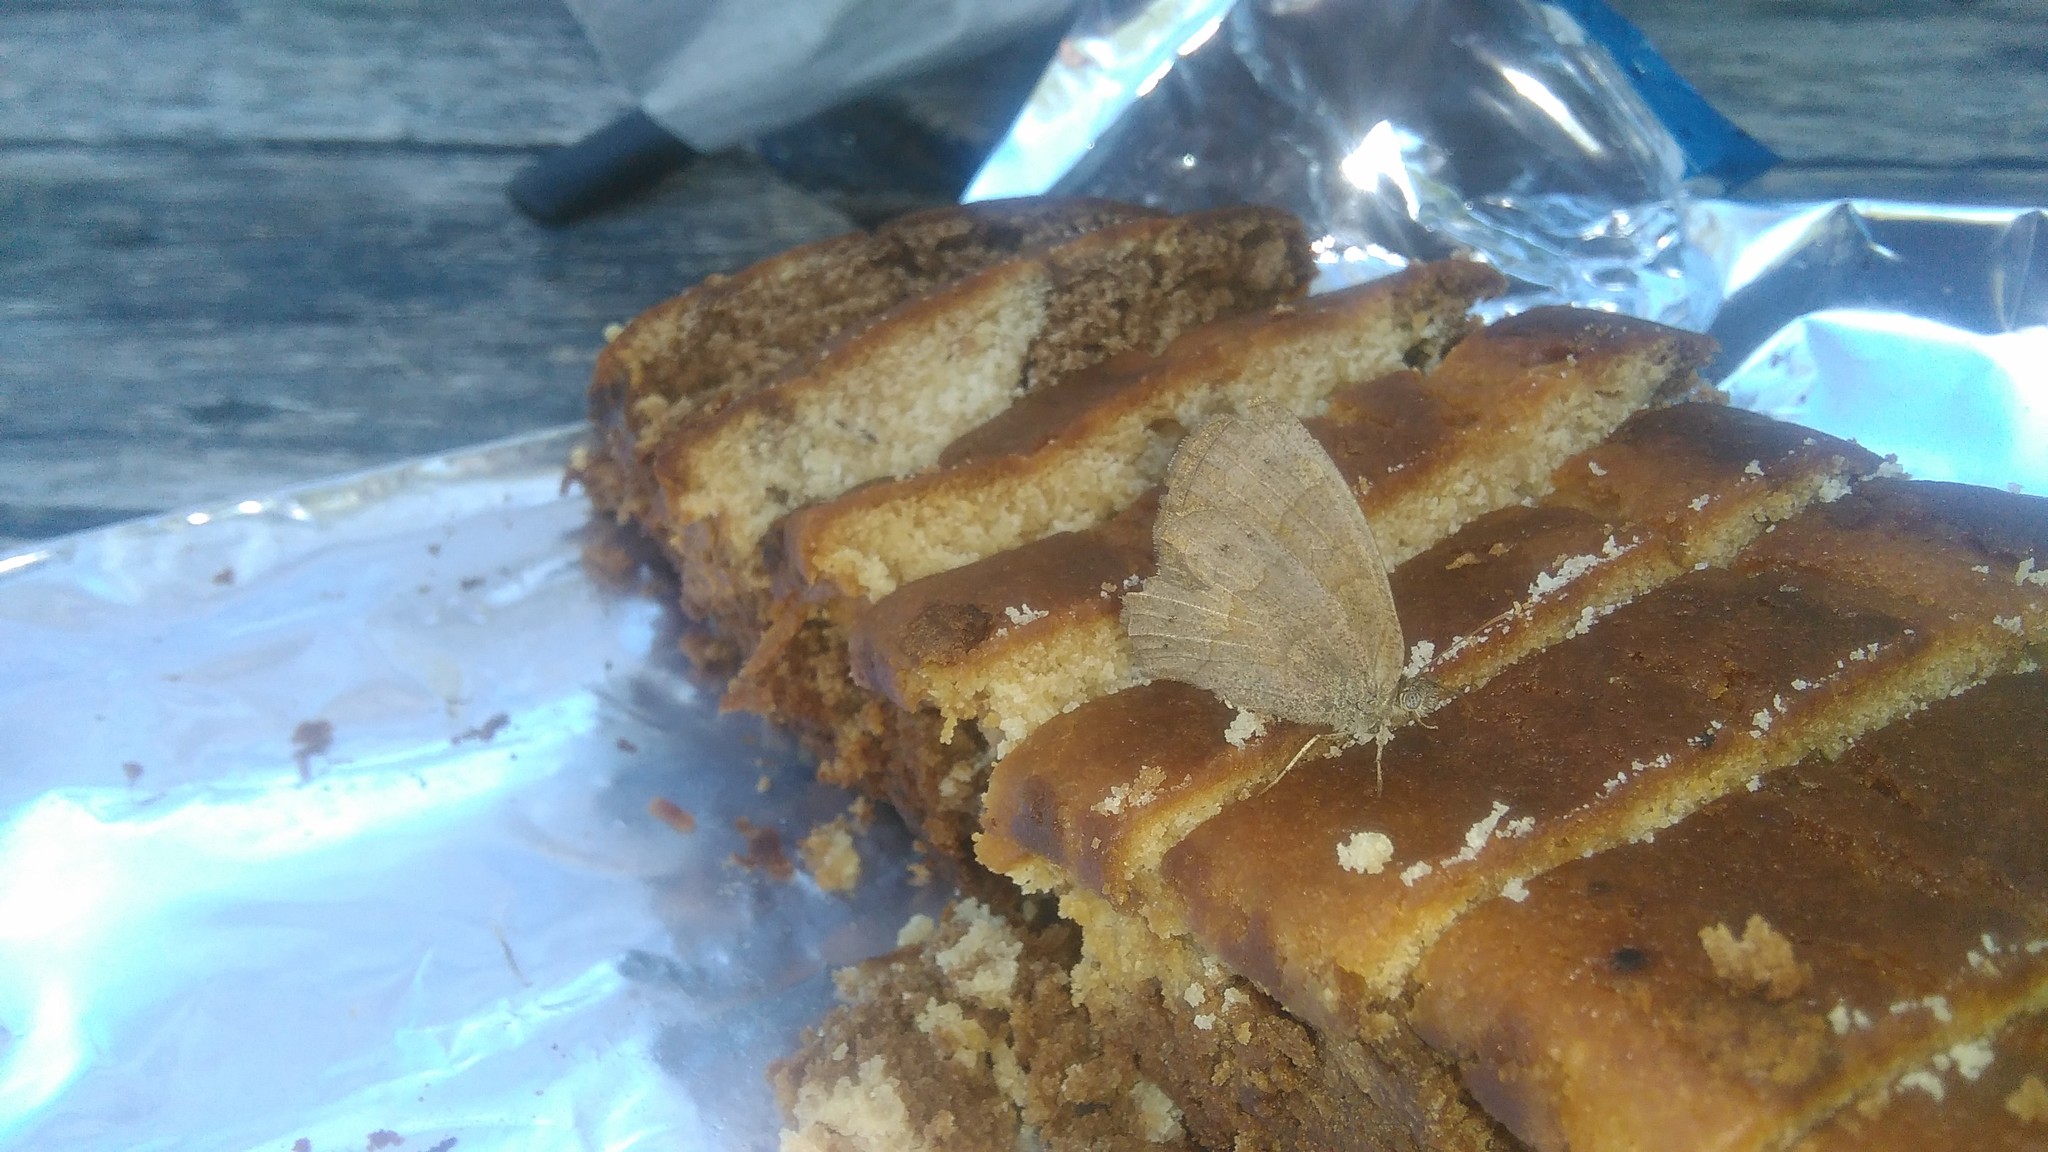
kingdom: Animalia
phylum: Arthropoda
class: Insecta
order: Lepidoptera
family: Nymphalidae
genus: Yphthimoides
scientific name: Yphthimoides celmis
